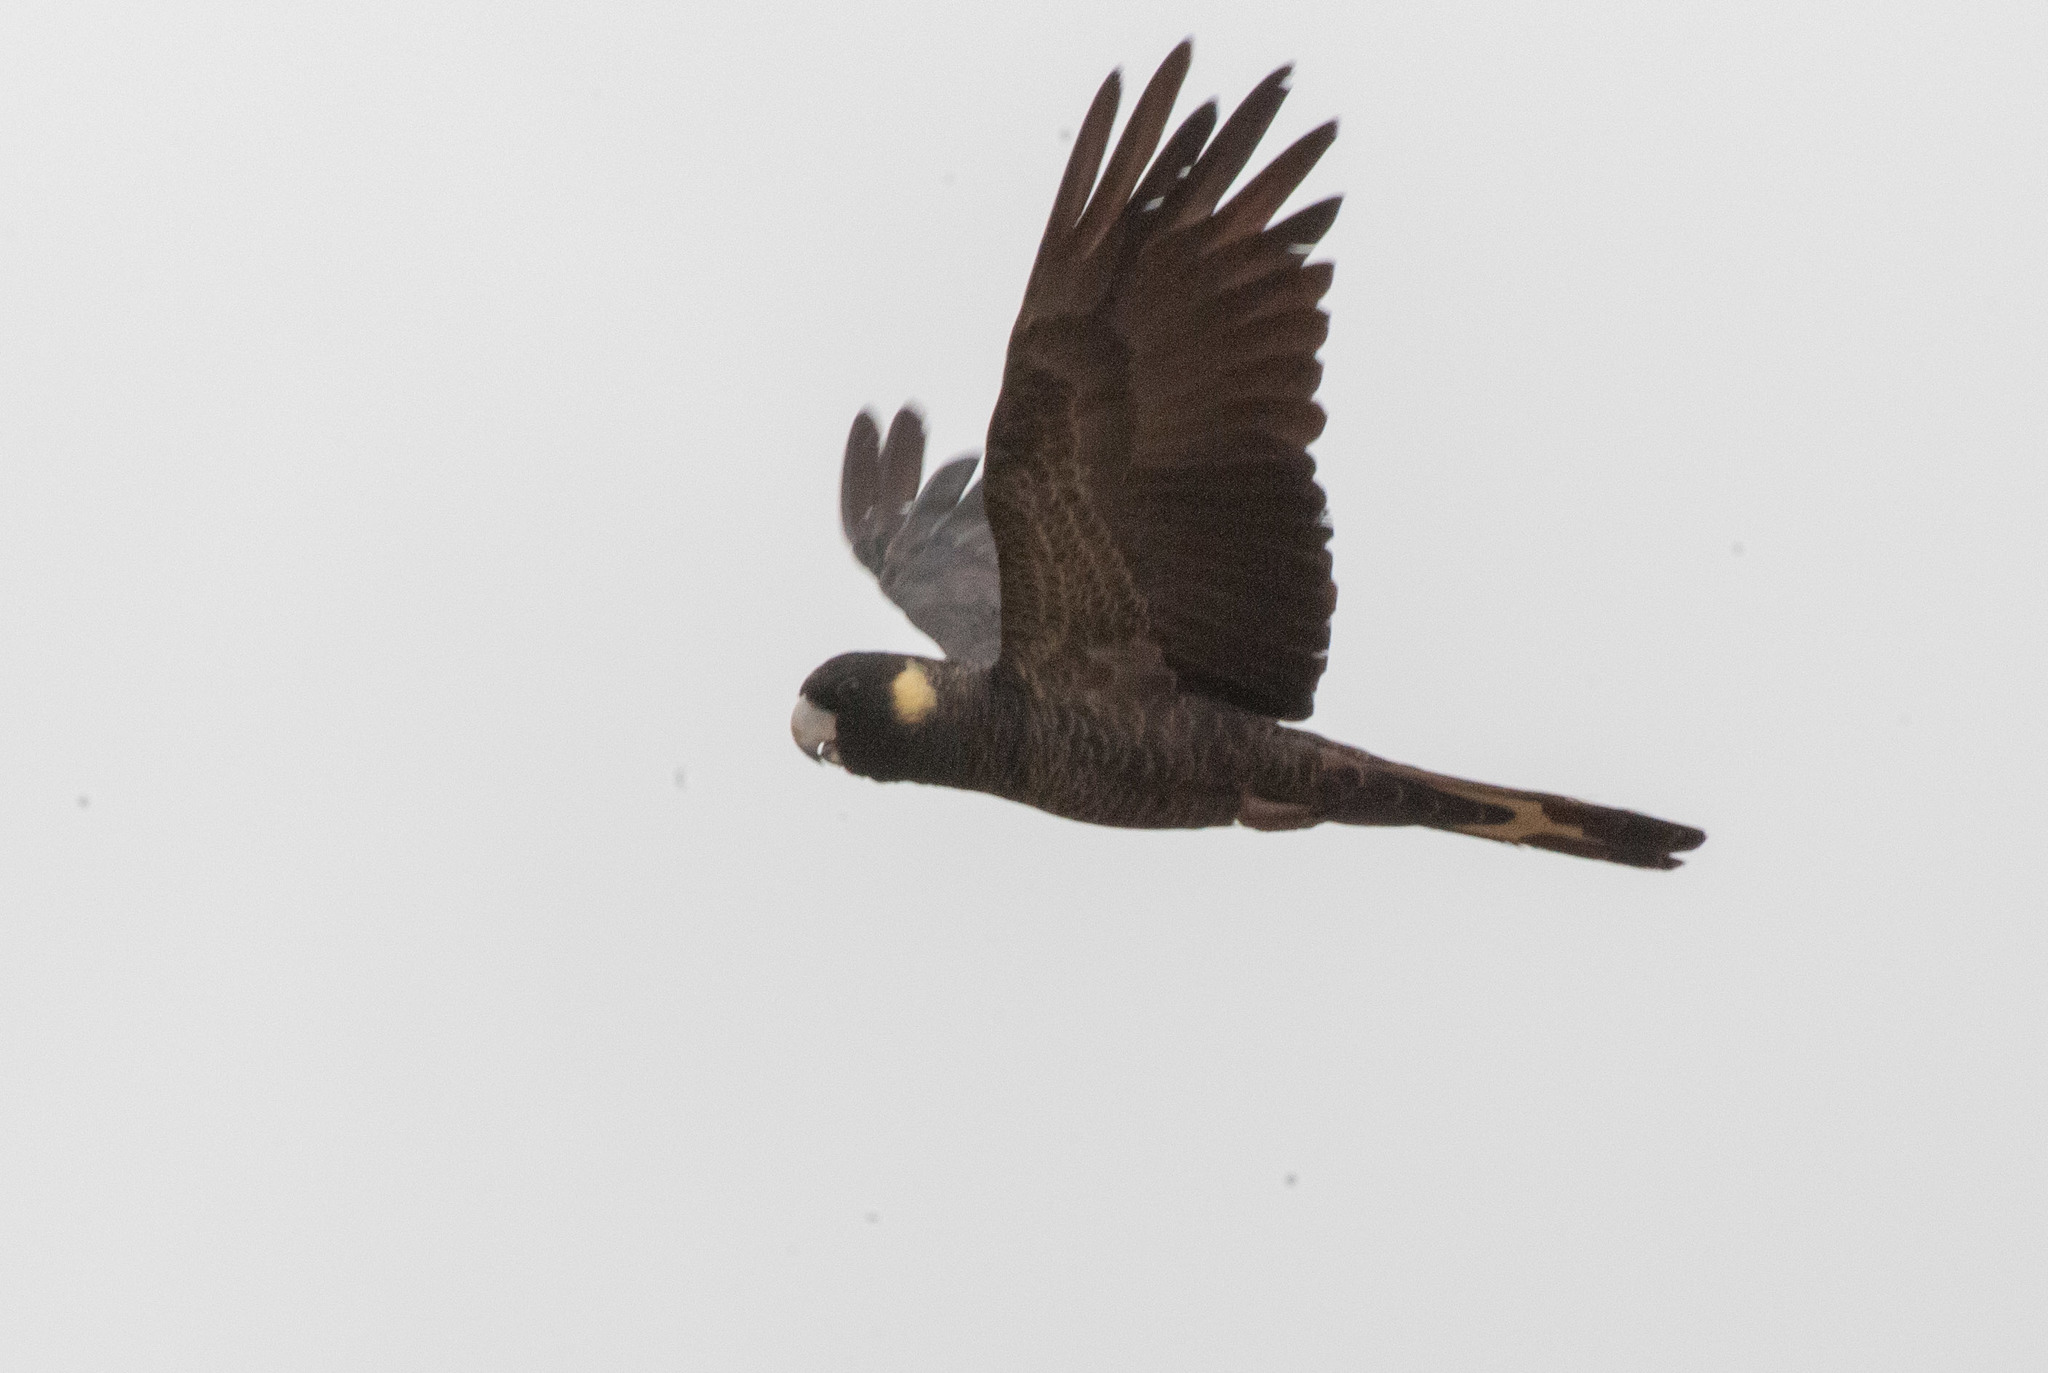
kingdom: Animalia
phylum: Chordata
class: Aves
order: Psittaciformes
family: Cacatuidae
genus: Zanda
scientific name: Zanda funerea
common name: Yellow-tailed black-cockatoo
